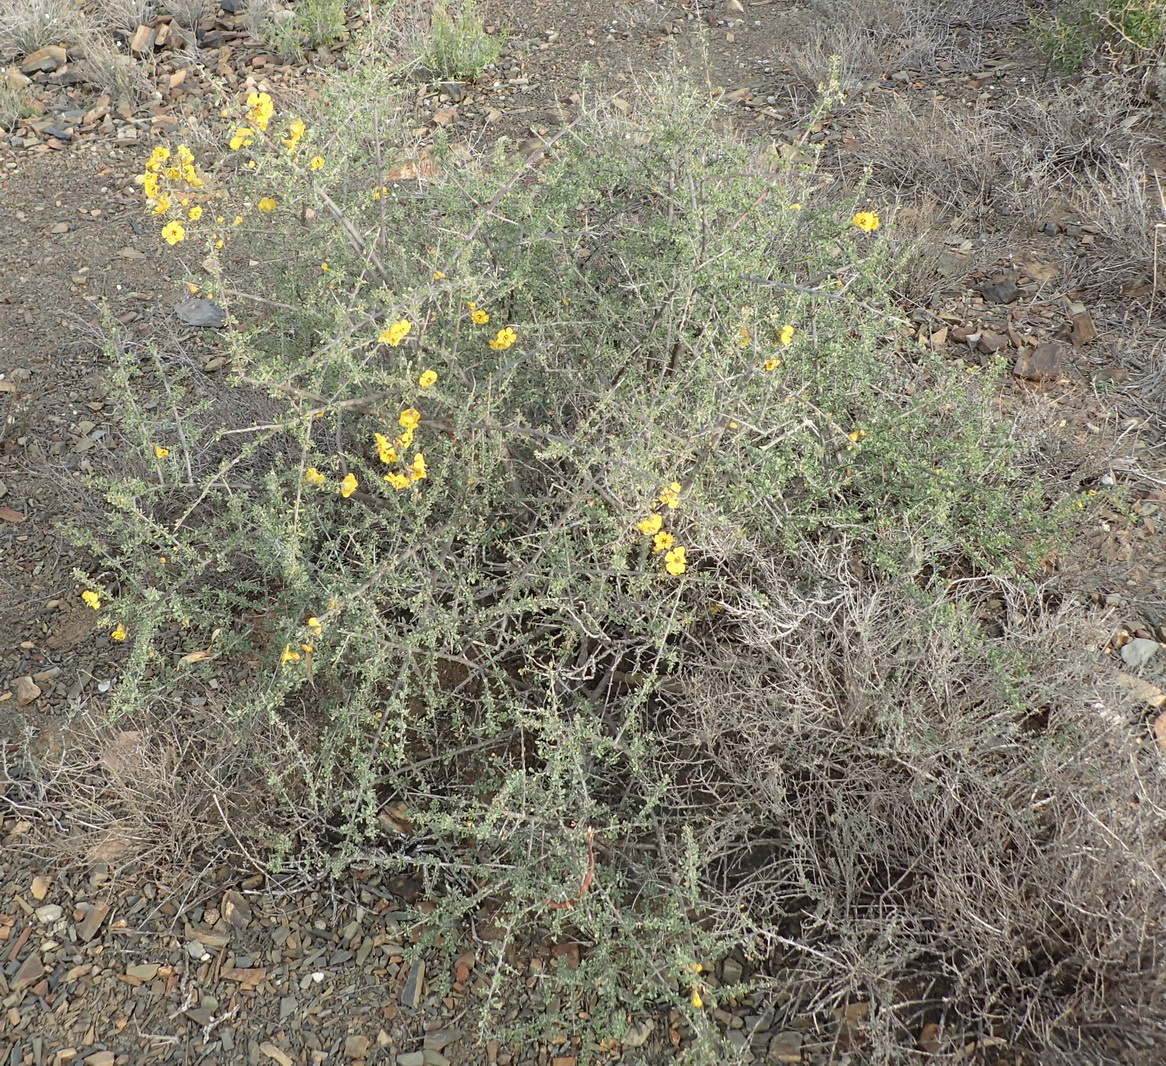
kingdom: Plantae
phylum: Tracheophyta
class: Magnoliopsida
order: Lamiales
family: Bignoniaceae
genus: Rhigozum
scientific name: Rhigozum obovatum
